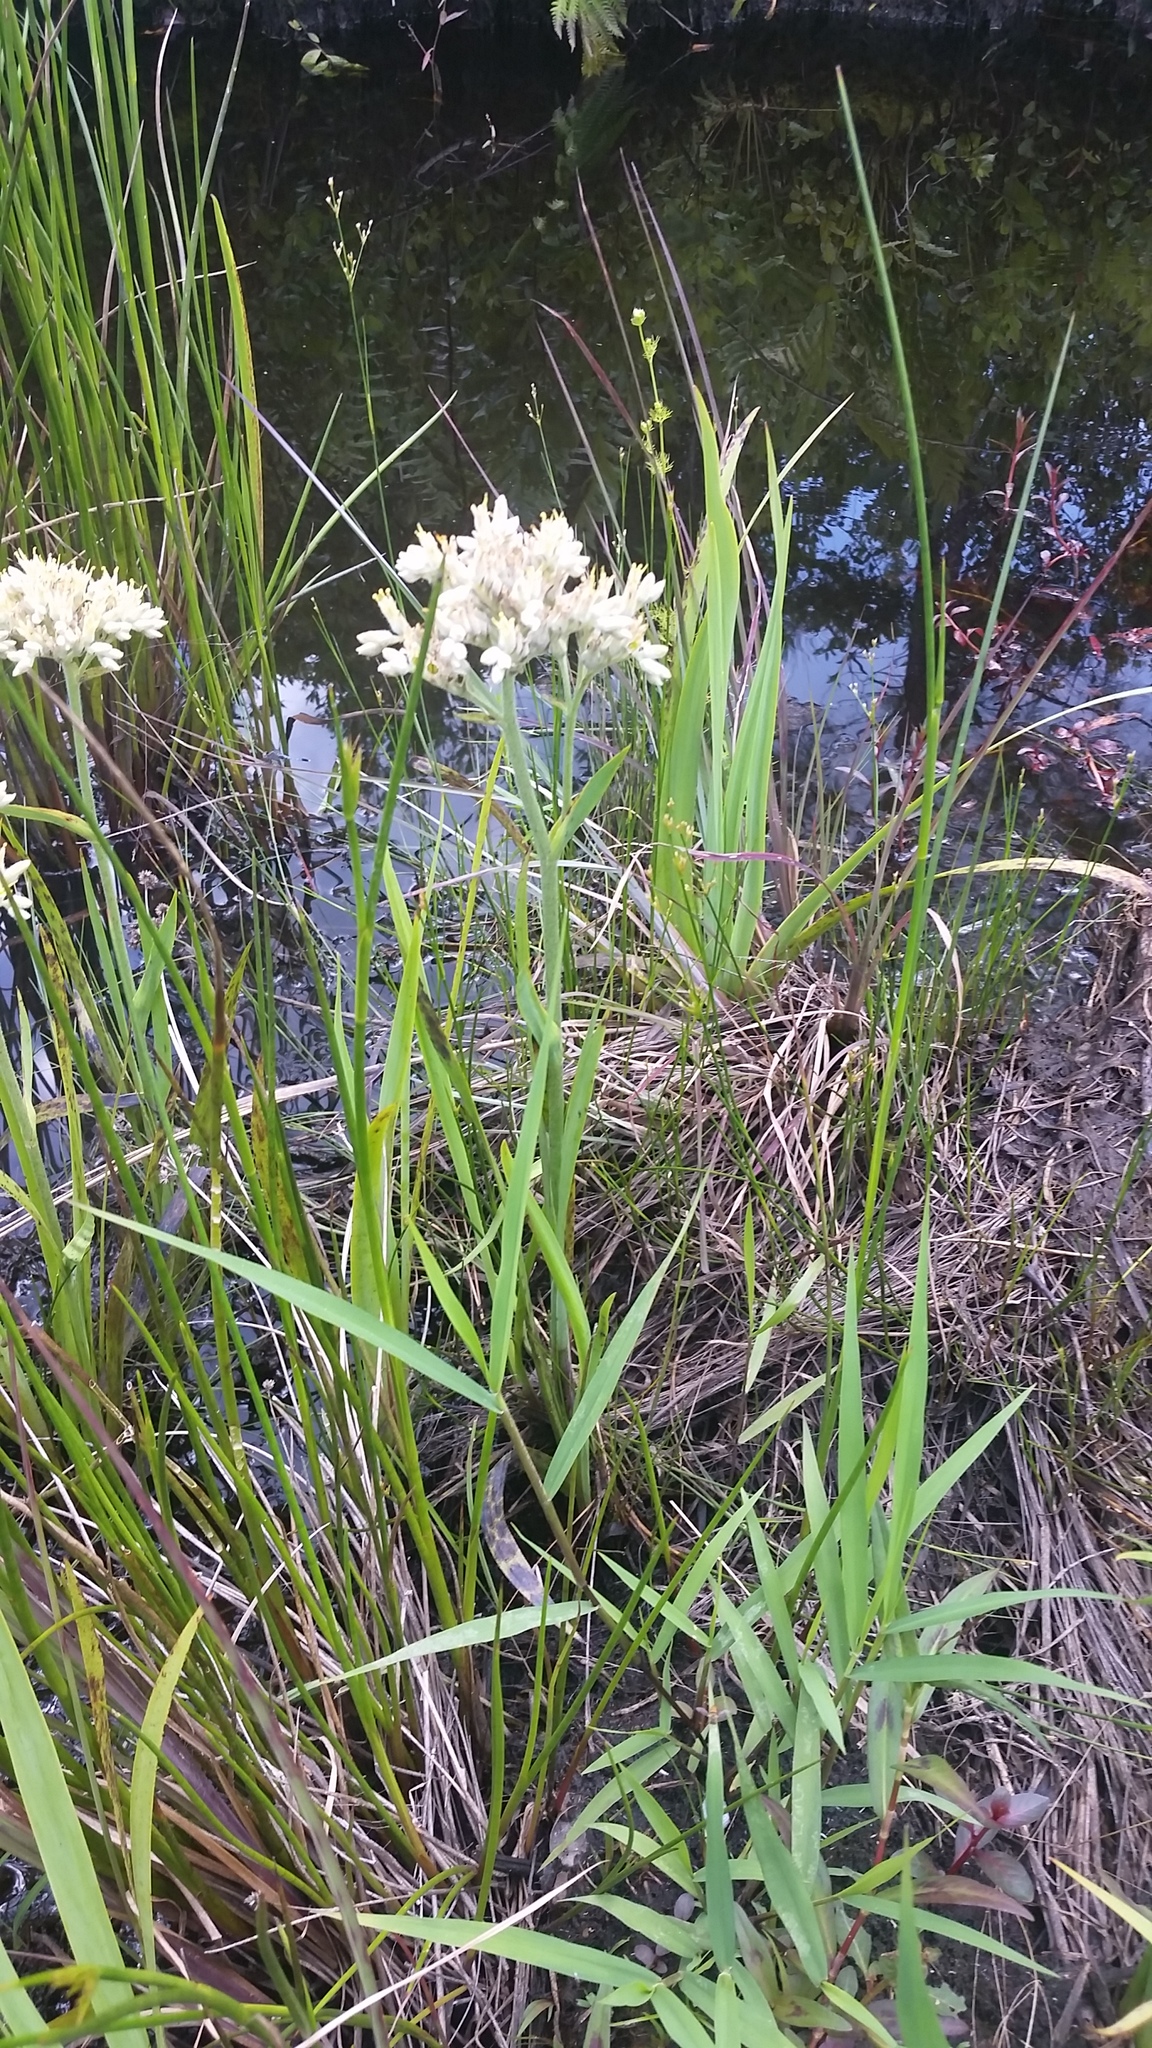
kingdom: Plantae
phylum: Tracheophyta
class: Liliopsida
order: Commelinales
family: Haemodoraceae
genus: Lachnanthes
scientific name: Lachnanthes caroliana
